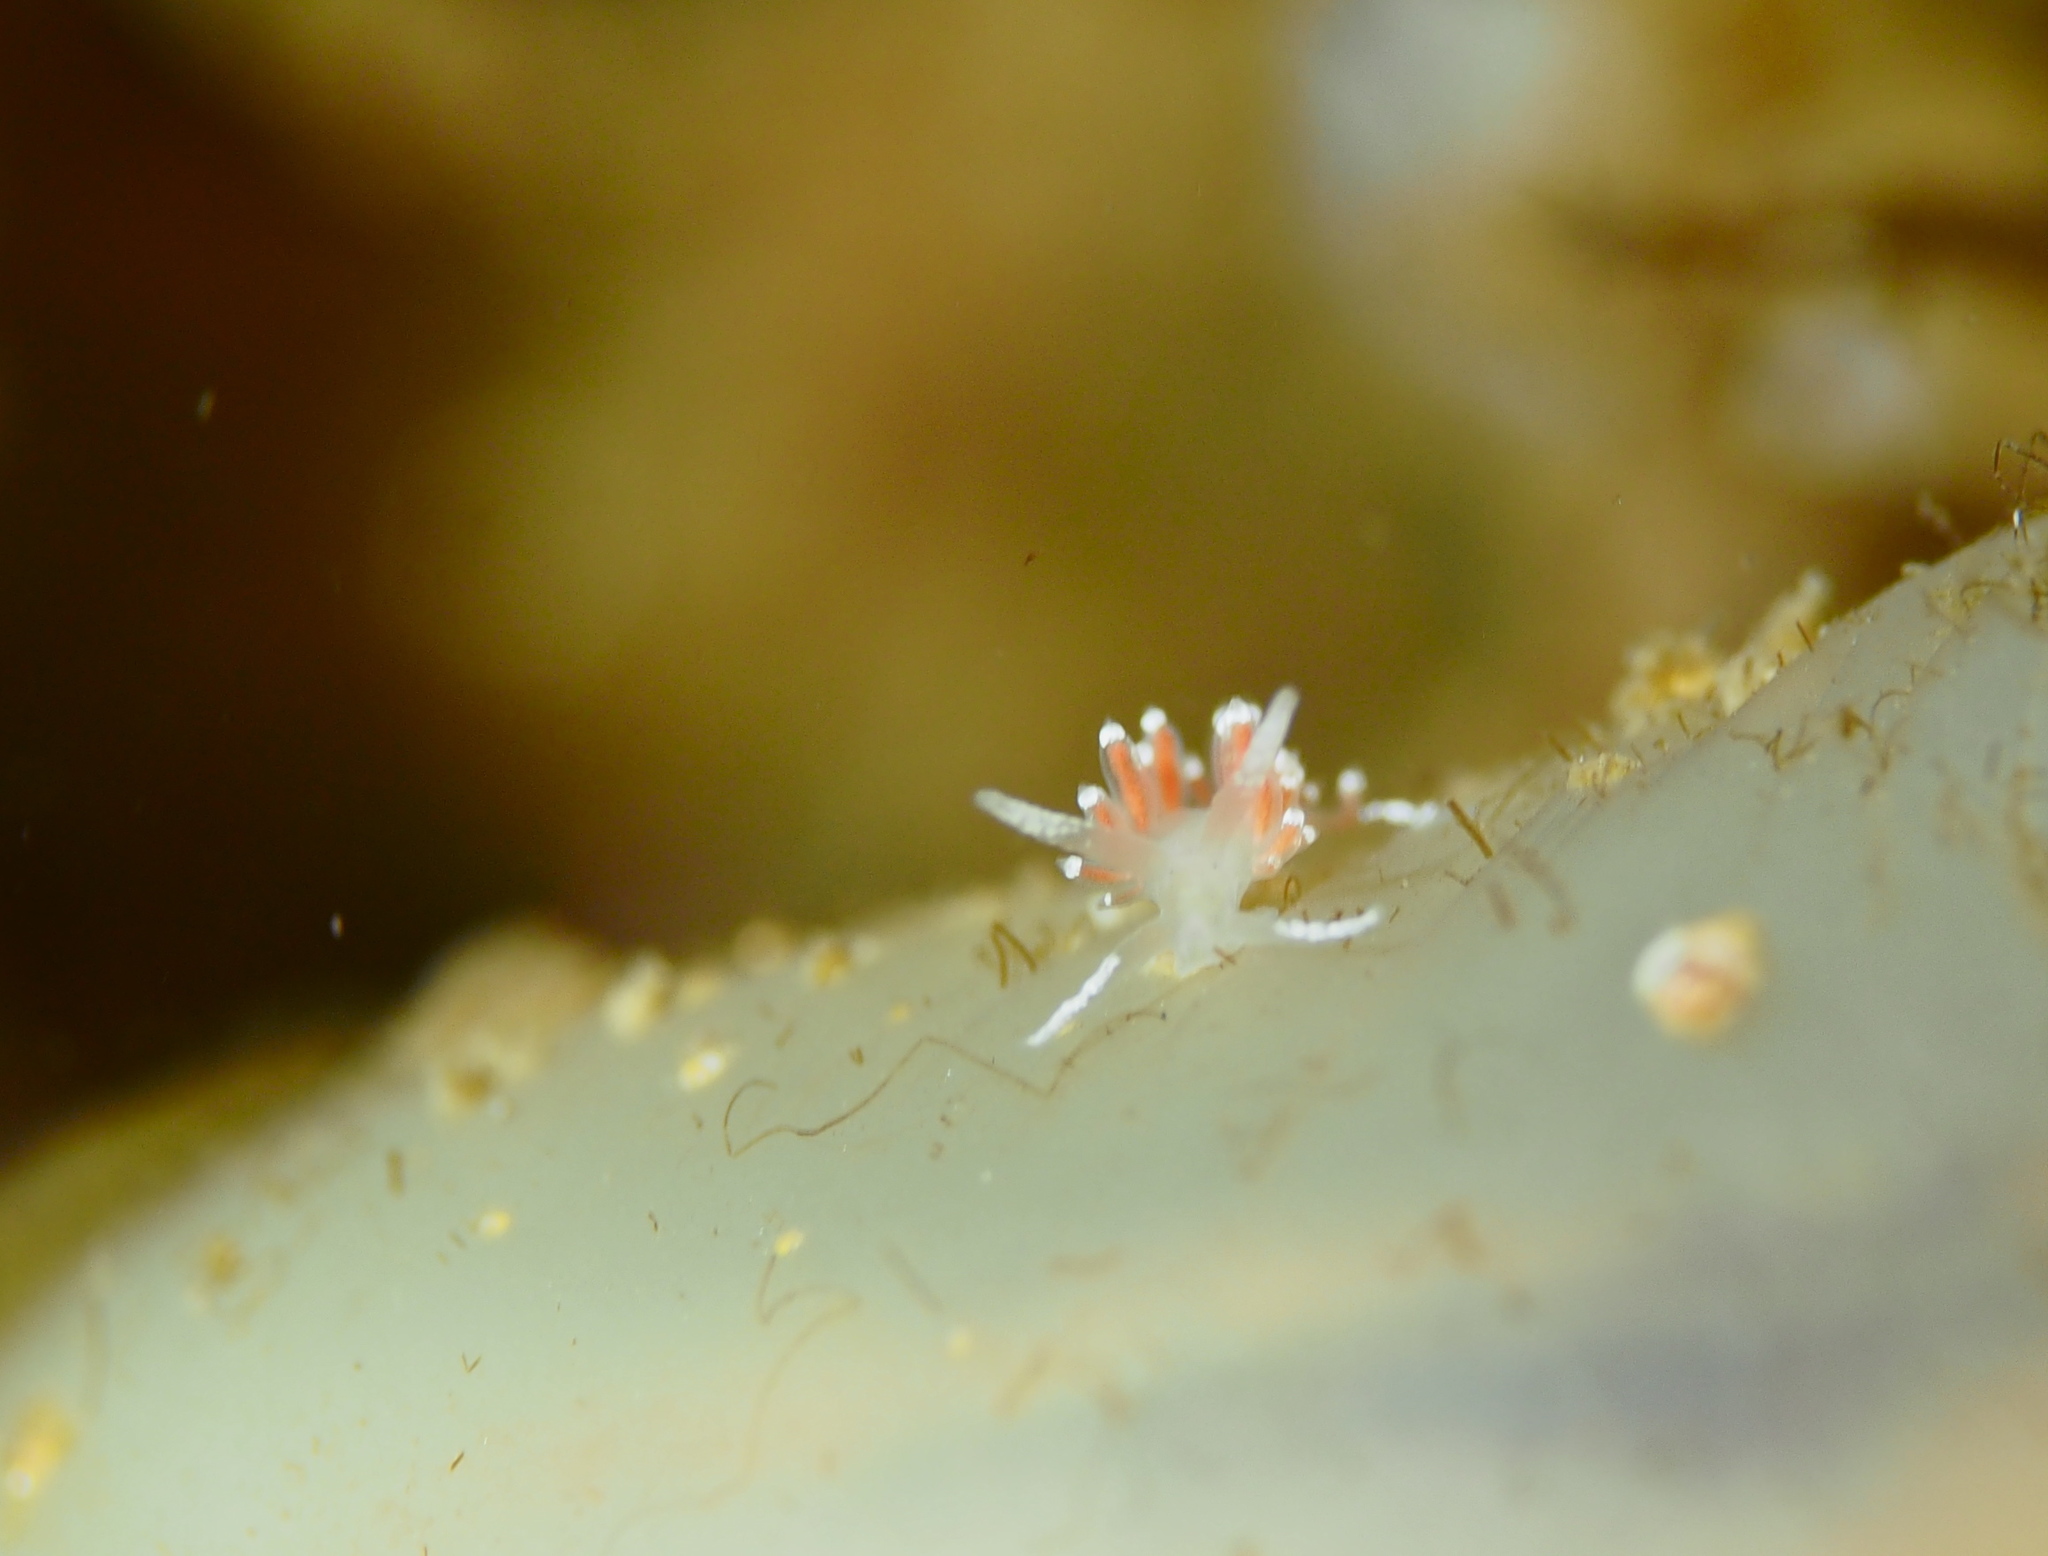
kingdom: Animalia
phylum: Mollusca
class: Gastropoda
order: Nudibranchia
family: Coryphellidae
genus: Coryphella
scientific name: Coryphella gracilis
